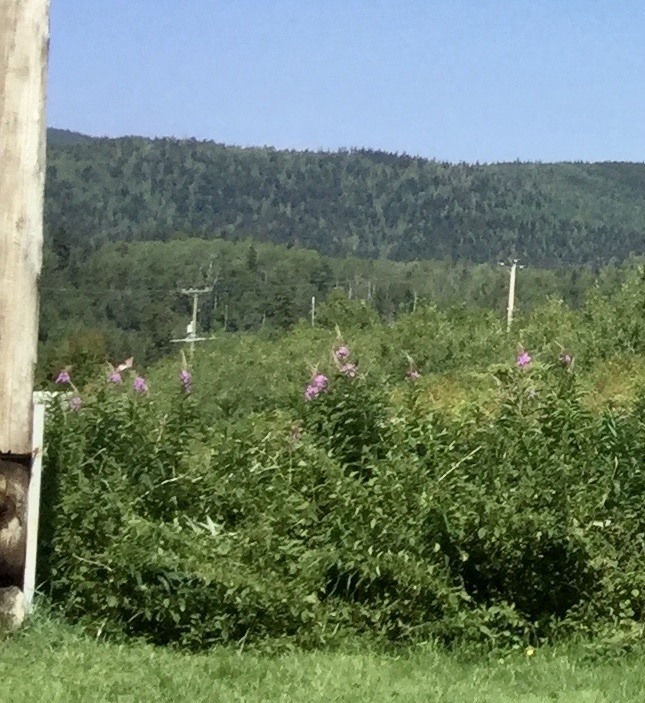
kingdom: Plantae
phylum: Tracheophyta
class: Magnoliopsida
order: Myrtales
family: Onagraceae
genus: Chamaenerion
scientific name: Chamaenerion angustifolium
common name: Fireweed
